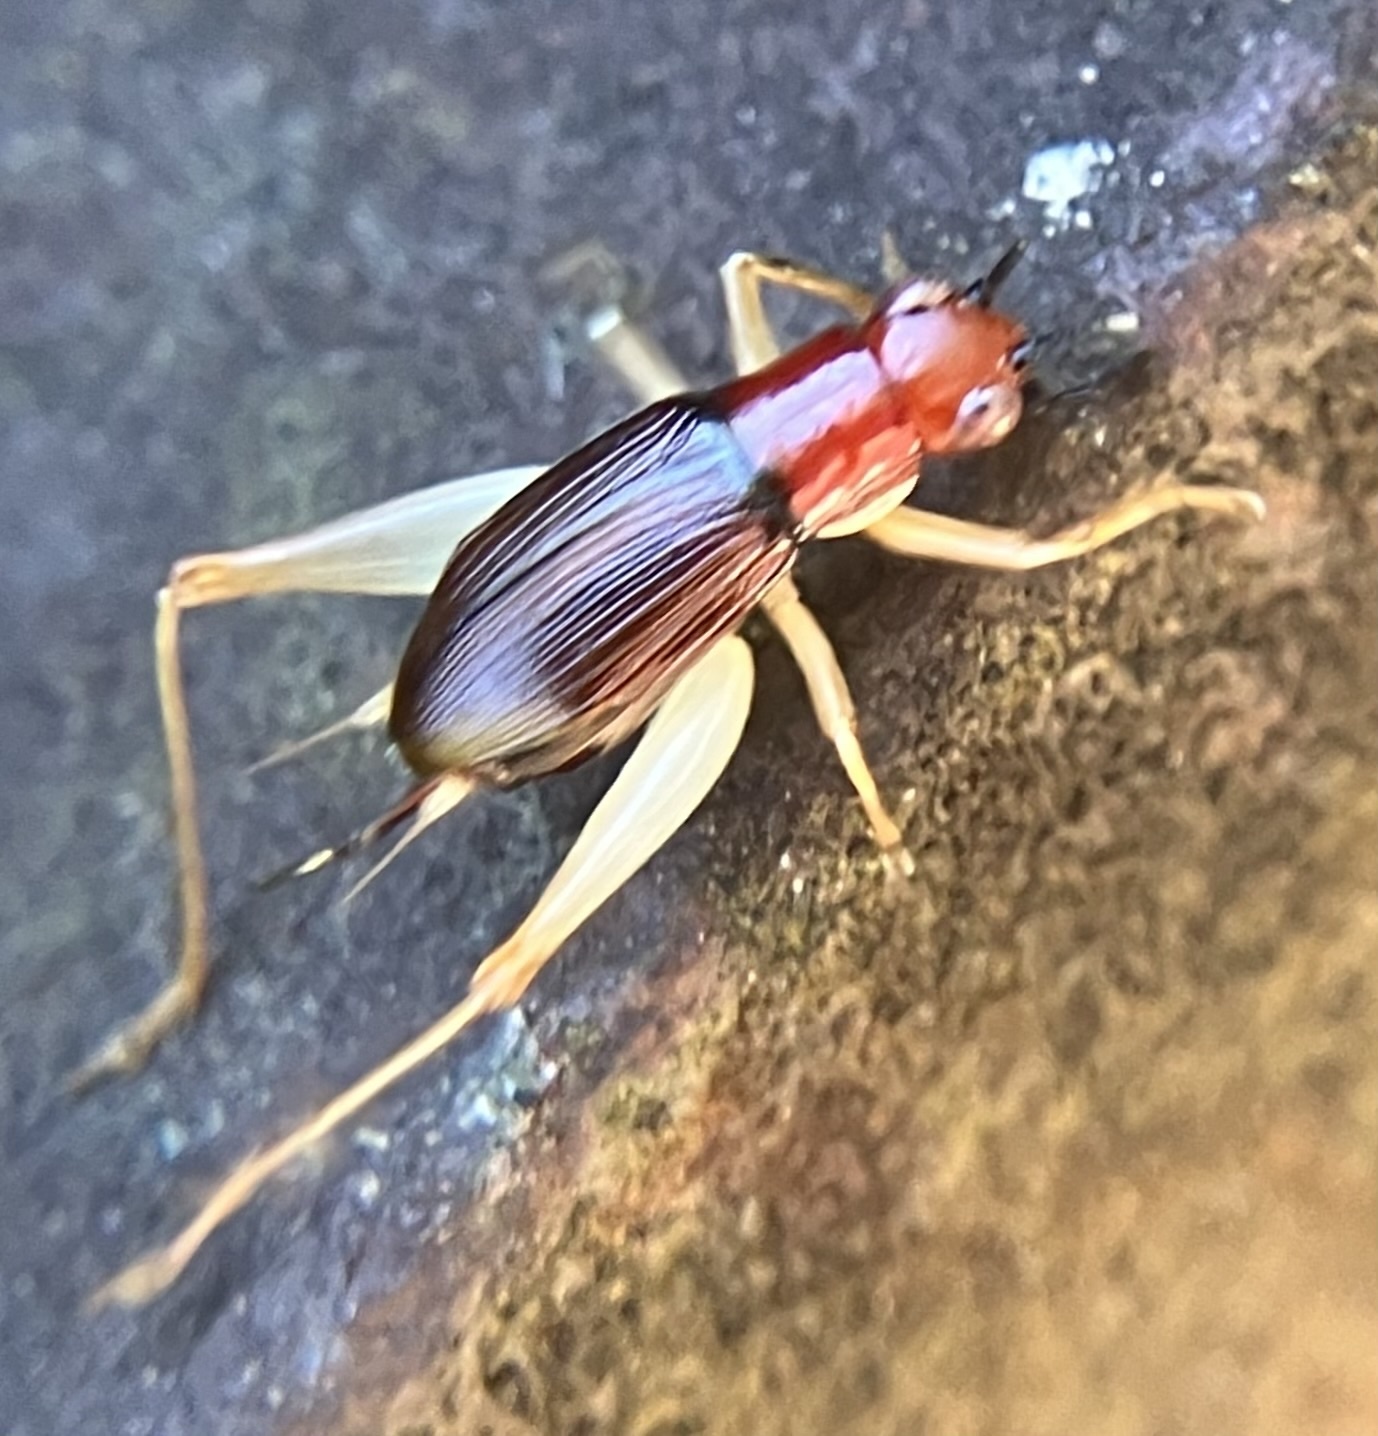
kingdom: Animalia
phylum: Arthropoda
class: Insecta
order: Orthoptera
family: Trigonidiidae
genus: Phyllopalpus
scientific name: Phyllopalpus pulchellus
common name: Handsome trig
